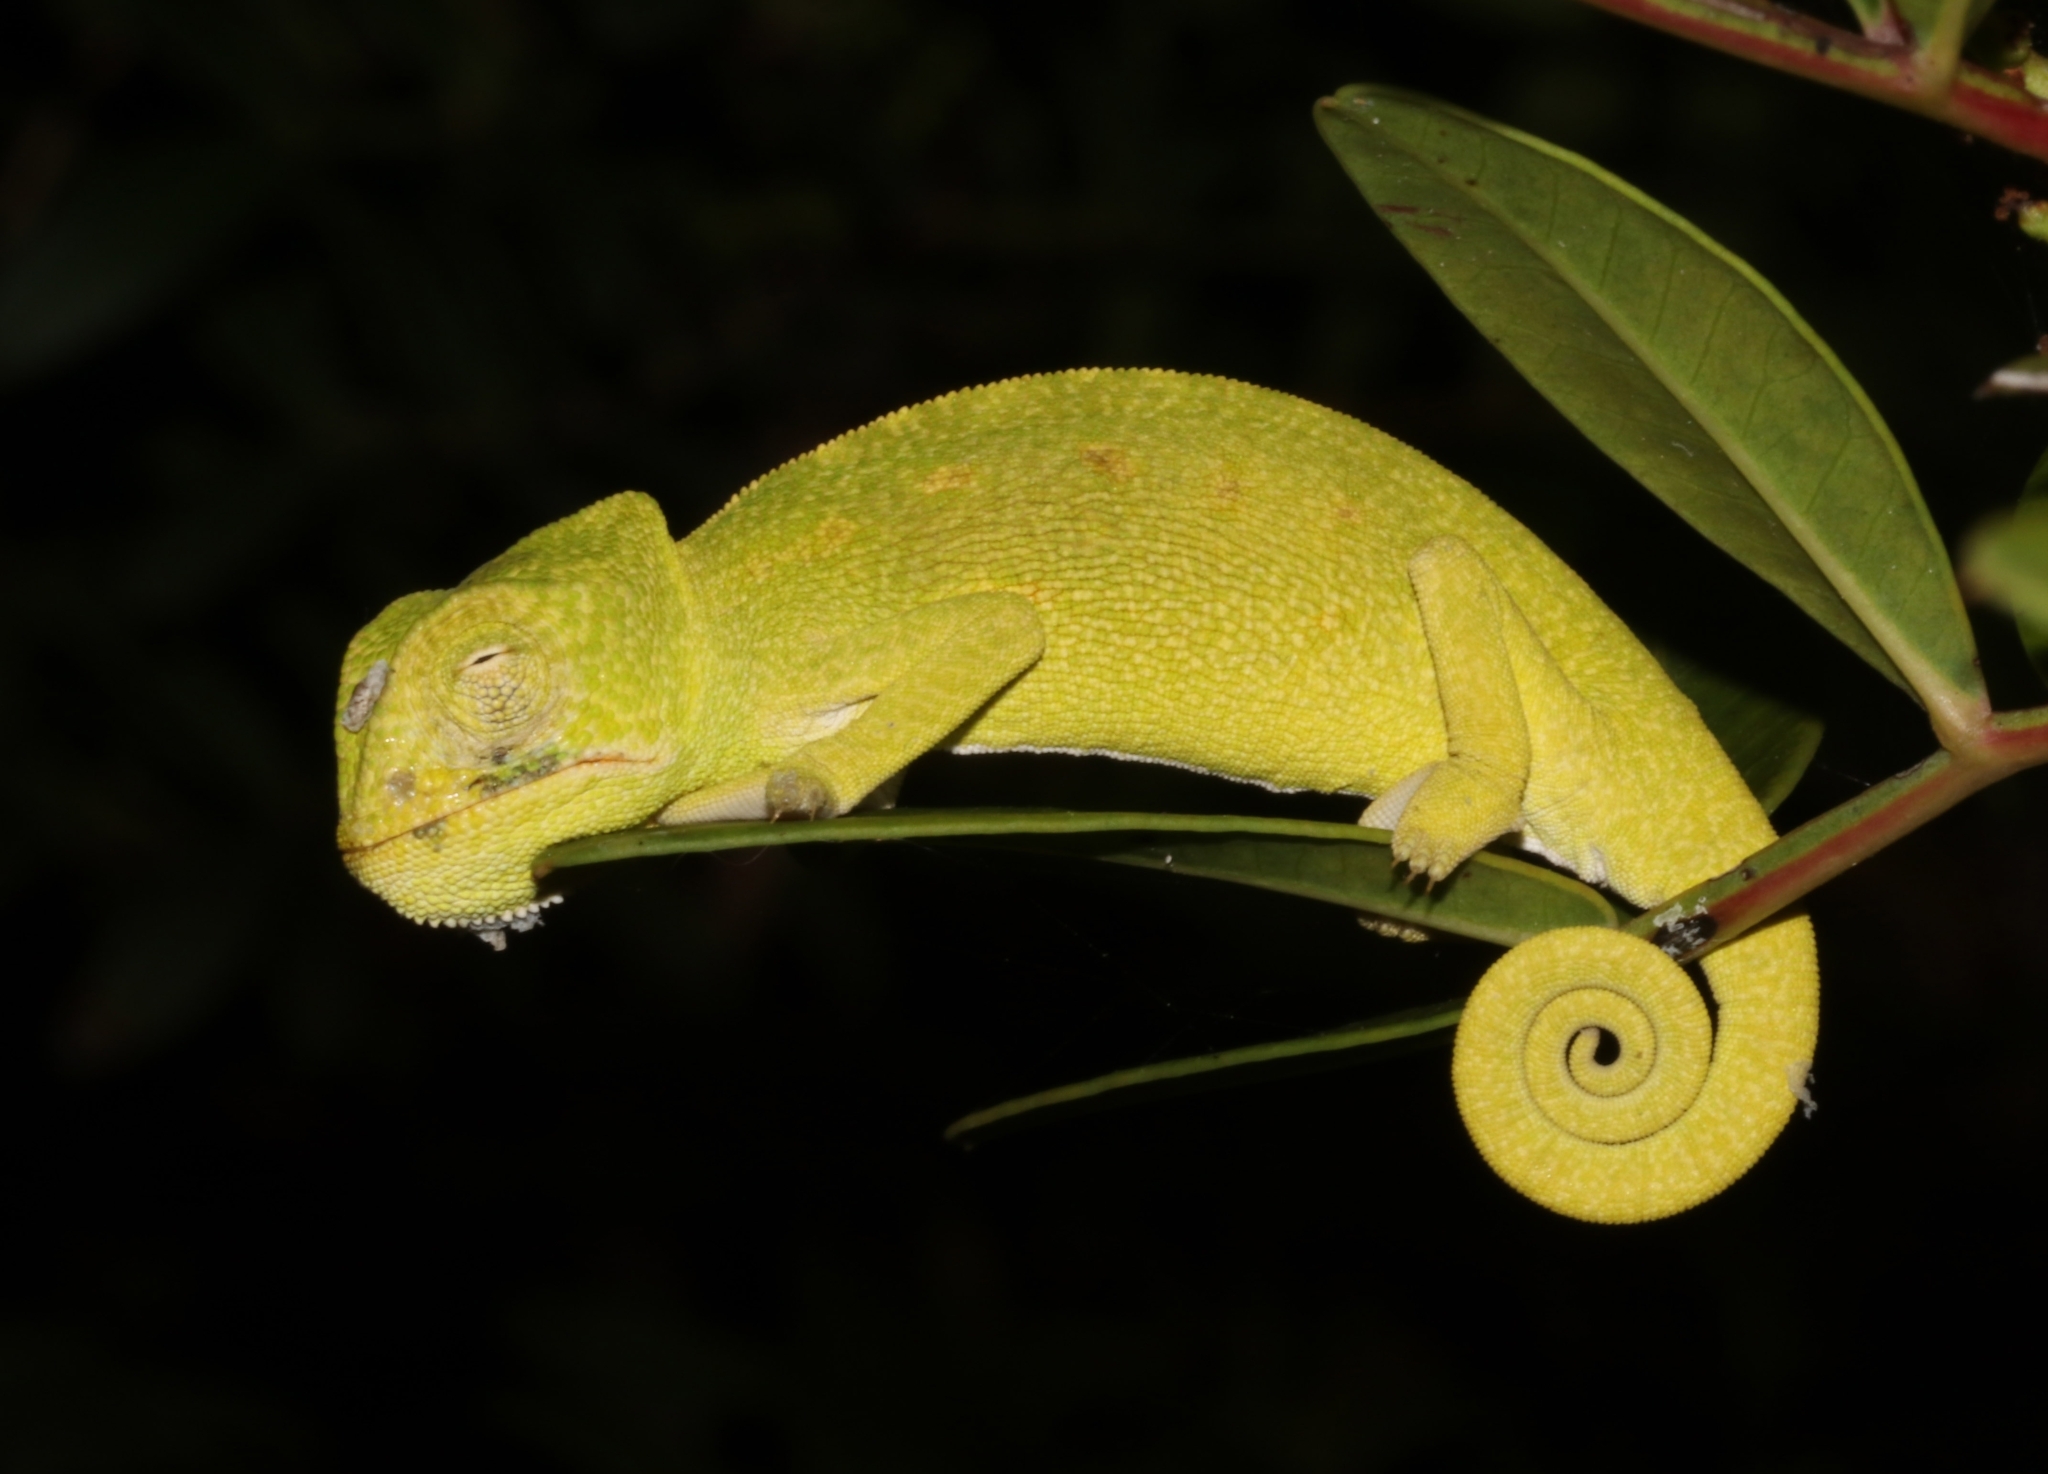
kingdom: Animalia
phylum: Chordata
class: Squamata
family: Chamaeleonidae
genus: Chamaeleo
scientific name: Chamaeleo africanus
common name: African chameleon
